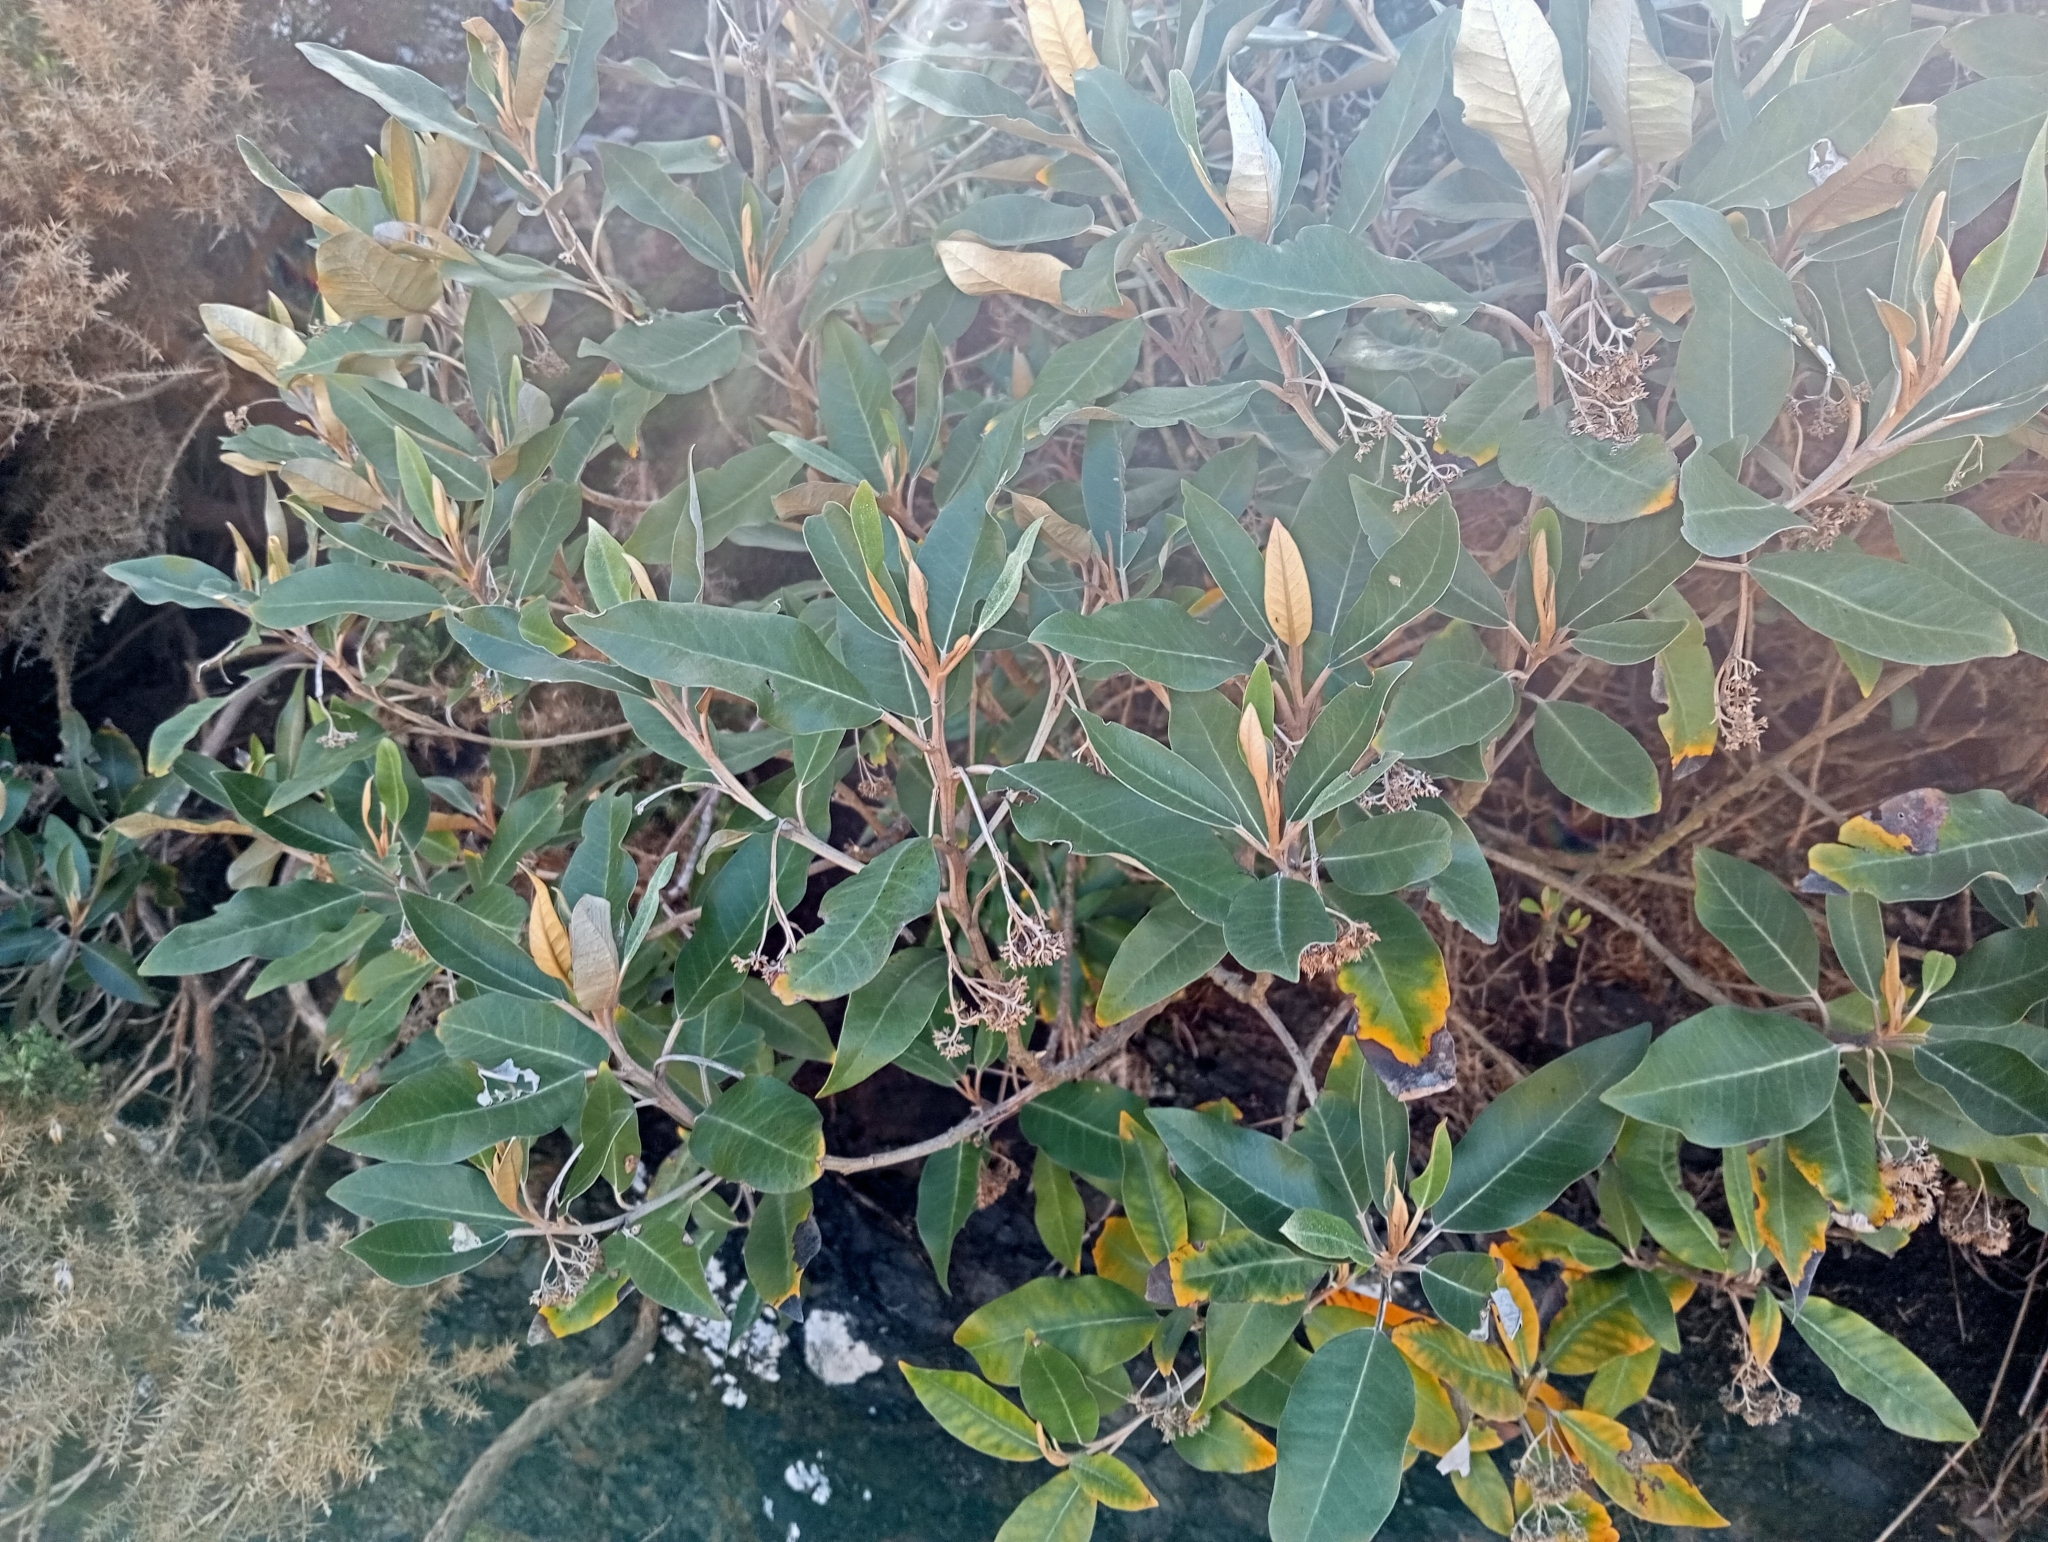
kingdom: Plantae
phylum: Tracheophyta
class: Magnoliopsida
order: Asterales
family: Asteraceae
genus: Olearia
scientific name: Olearia avicenniifolia
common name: Mangrove-leaf daisybush
